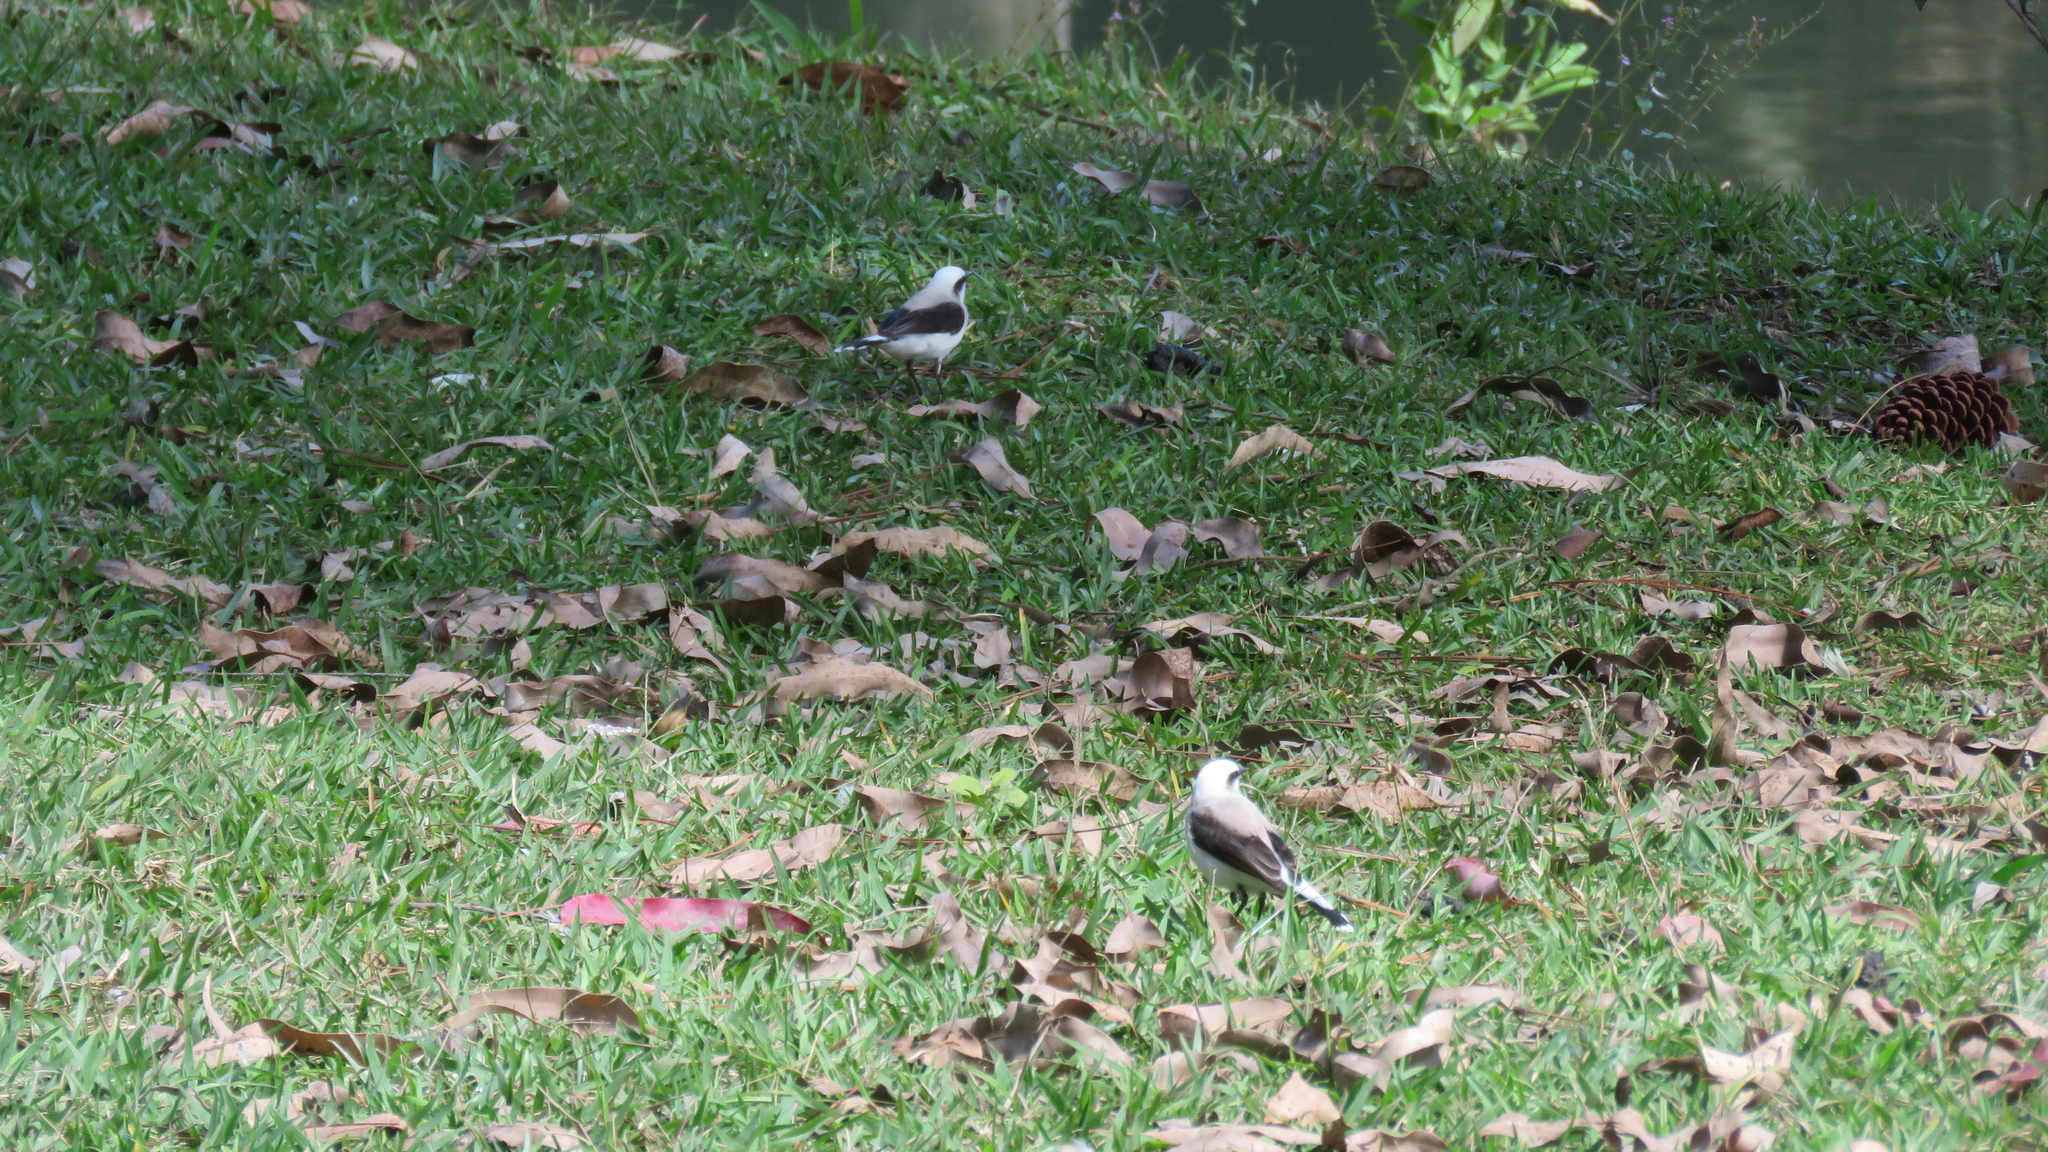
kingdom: Animalia
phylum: Chordata
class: Aves
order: Passeriformes
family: Tyrannidae
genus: Fluvicola
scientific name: Fluvicola nengeta
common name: Masked water tyrant
